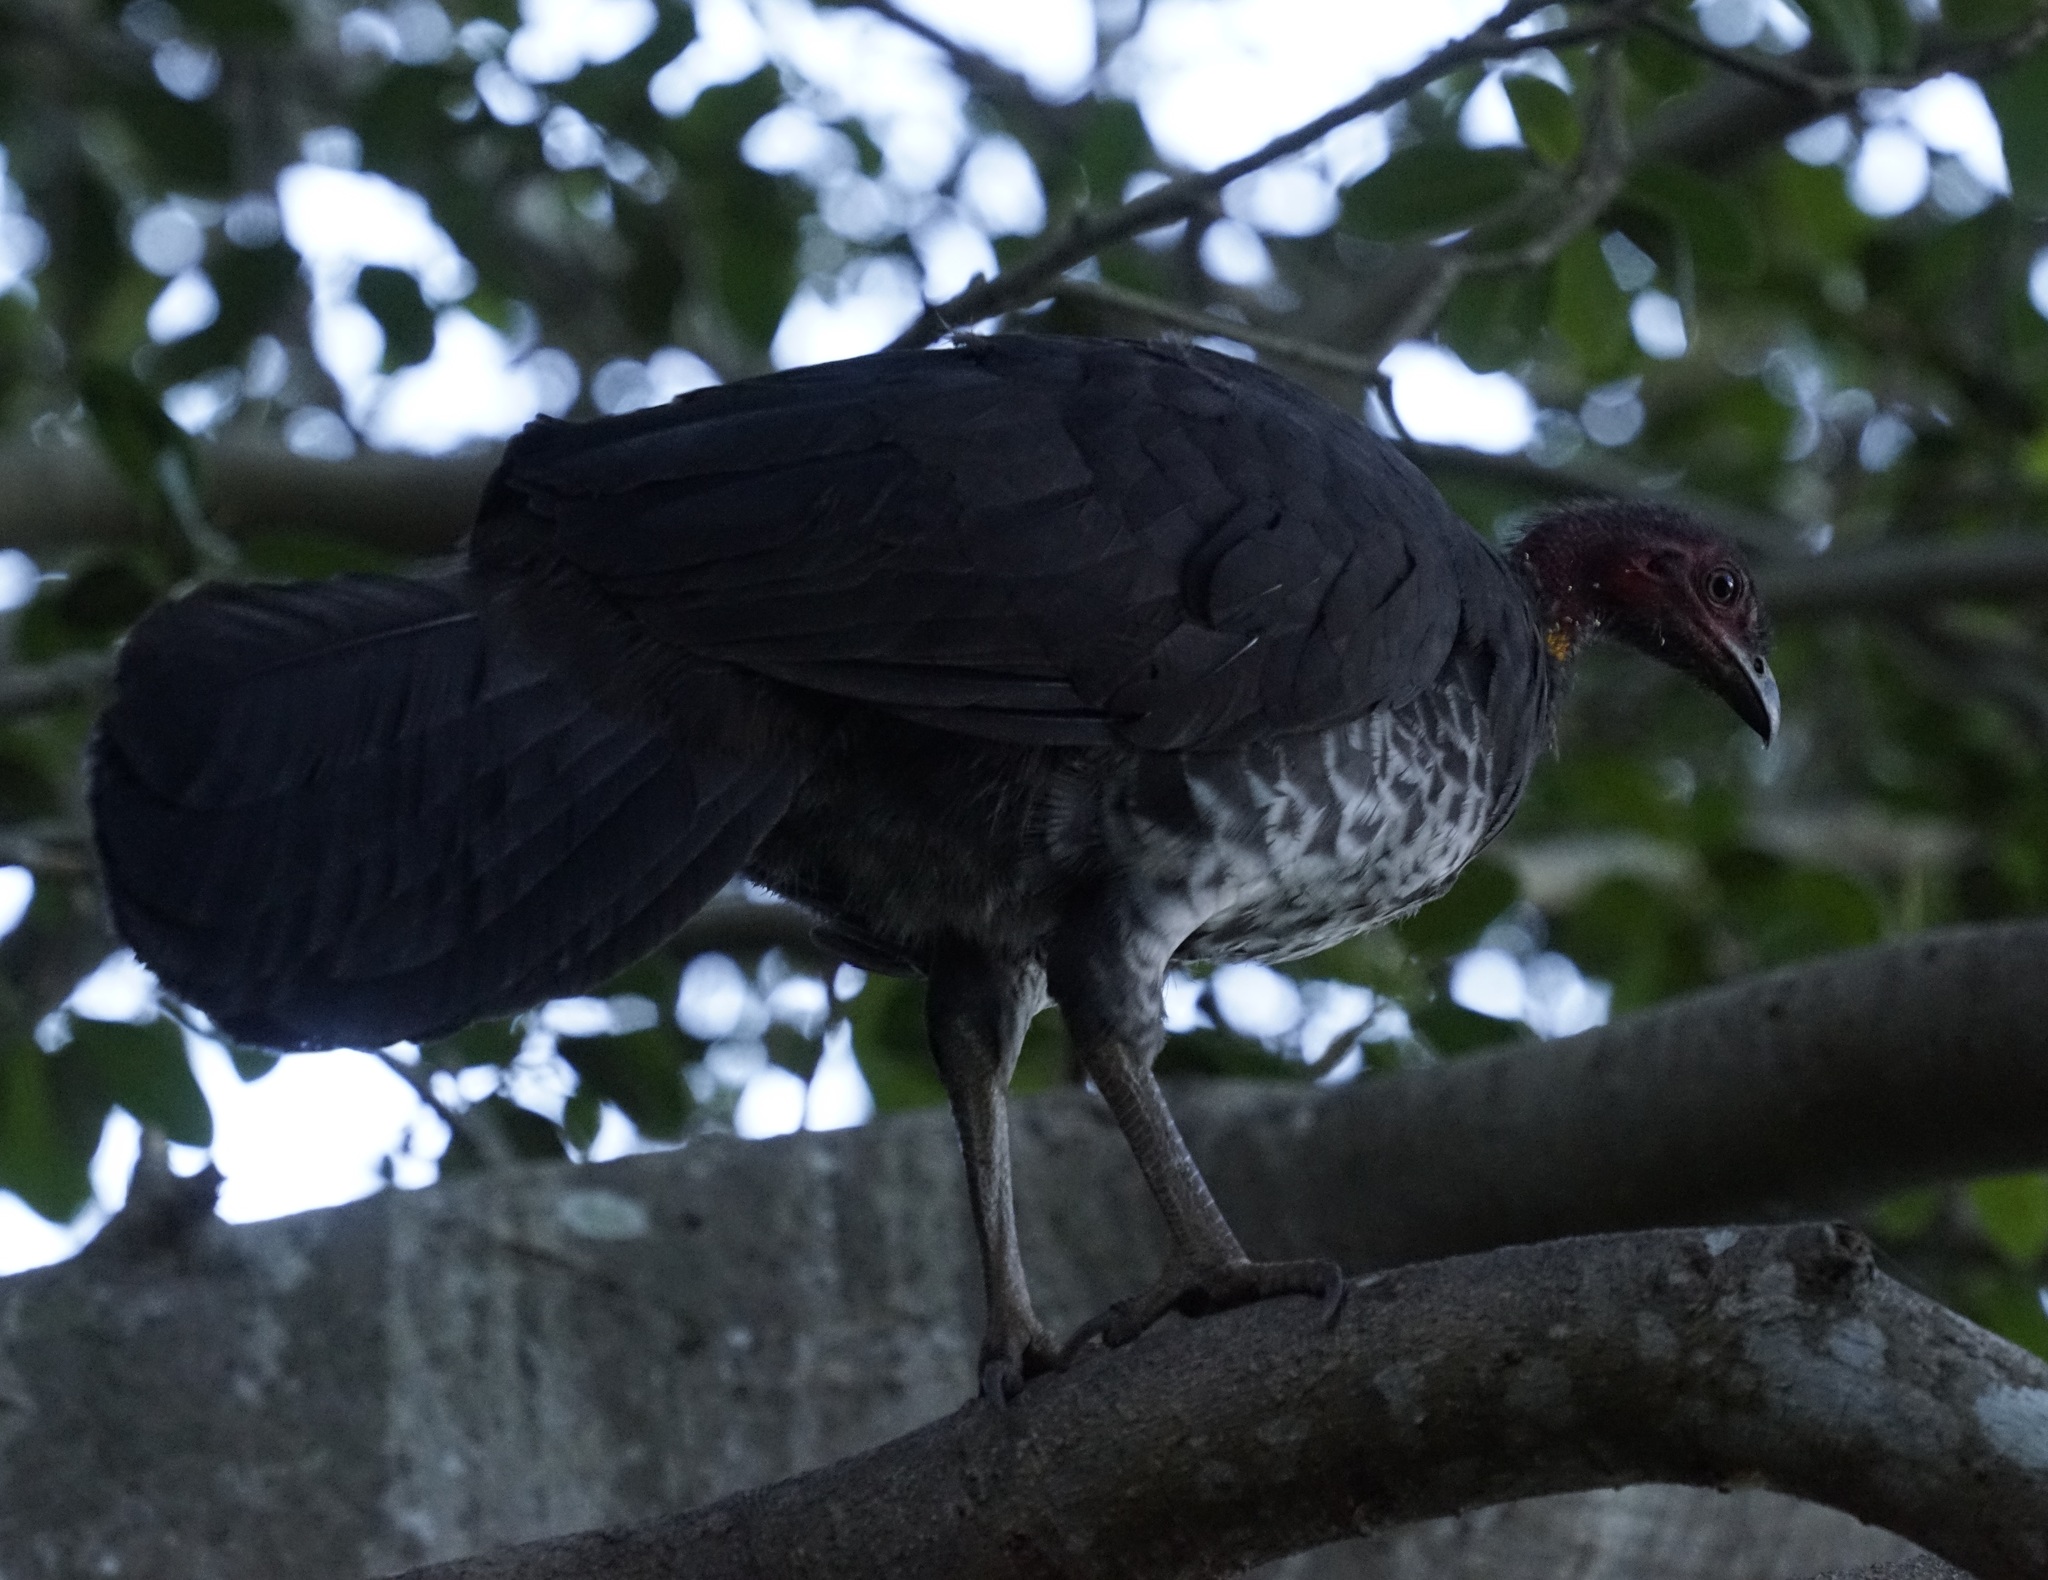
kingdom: Animalia
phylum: Chordata
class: Aves
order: Galliformes
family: Megapodiidae
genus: Alectura
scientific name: Alectura lathami
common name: Australian brushturkey
